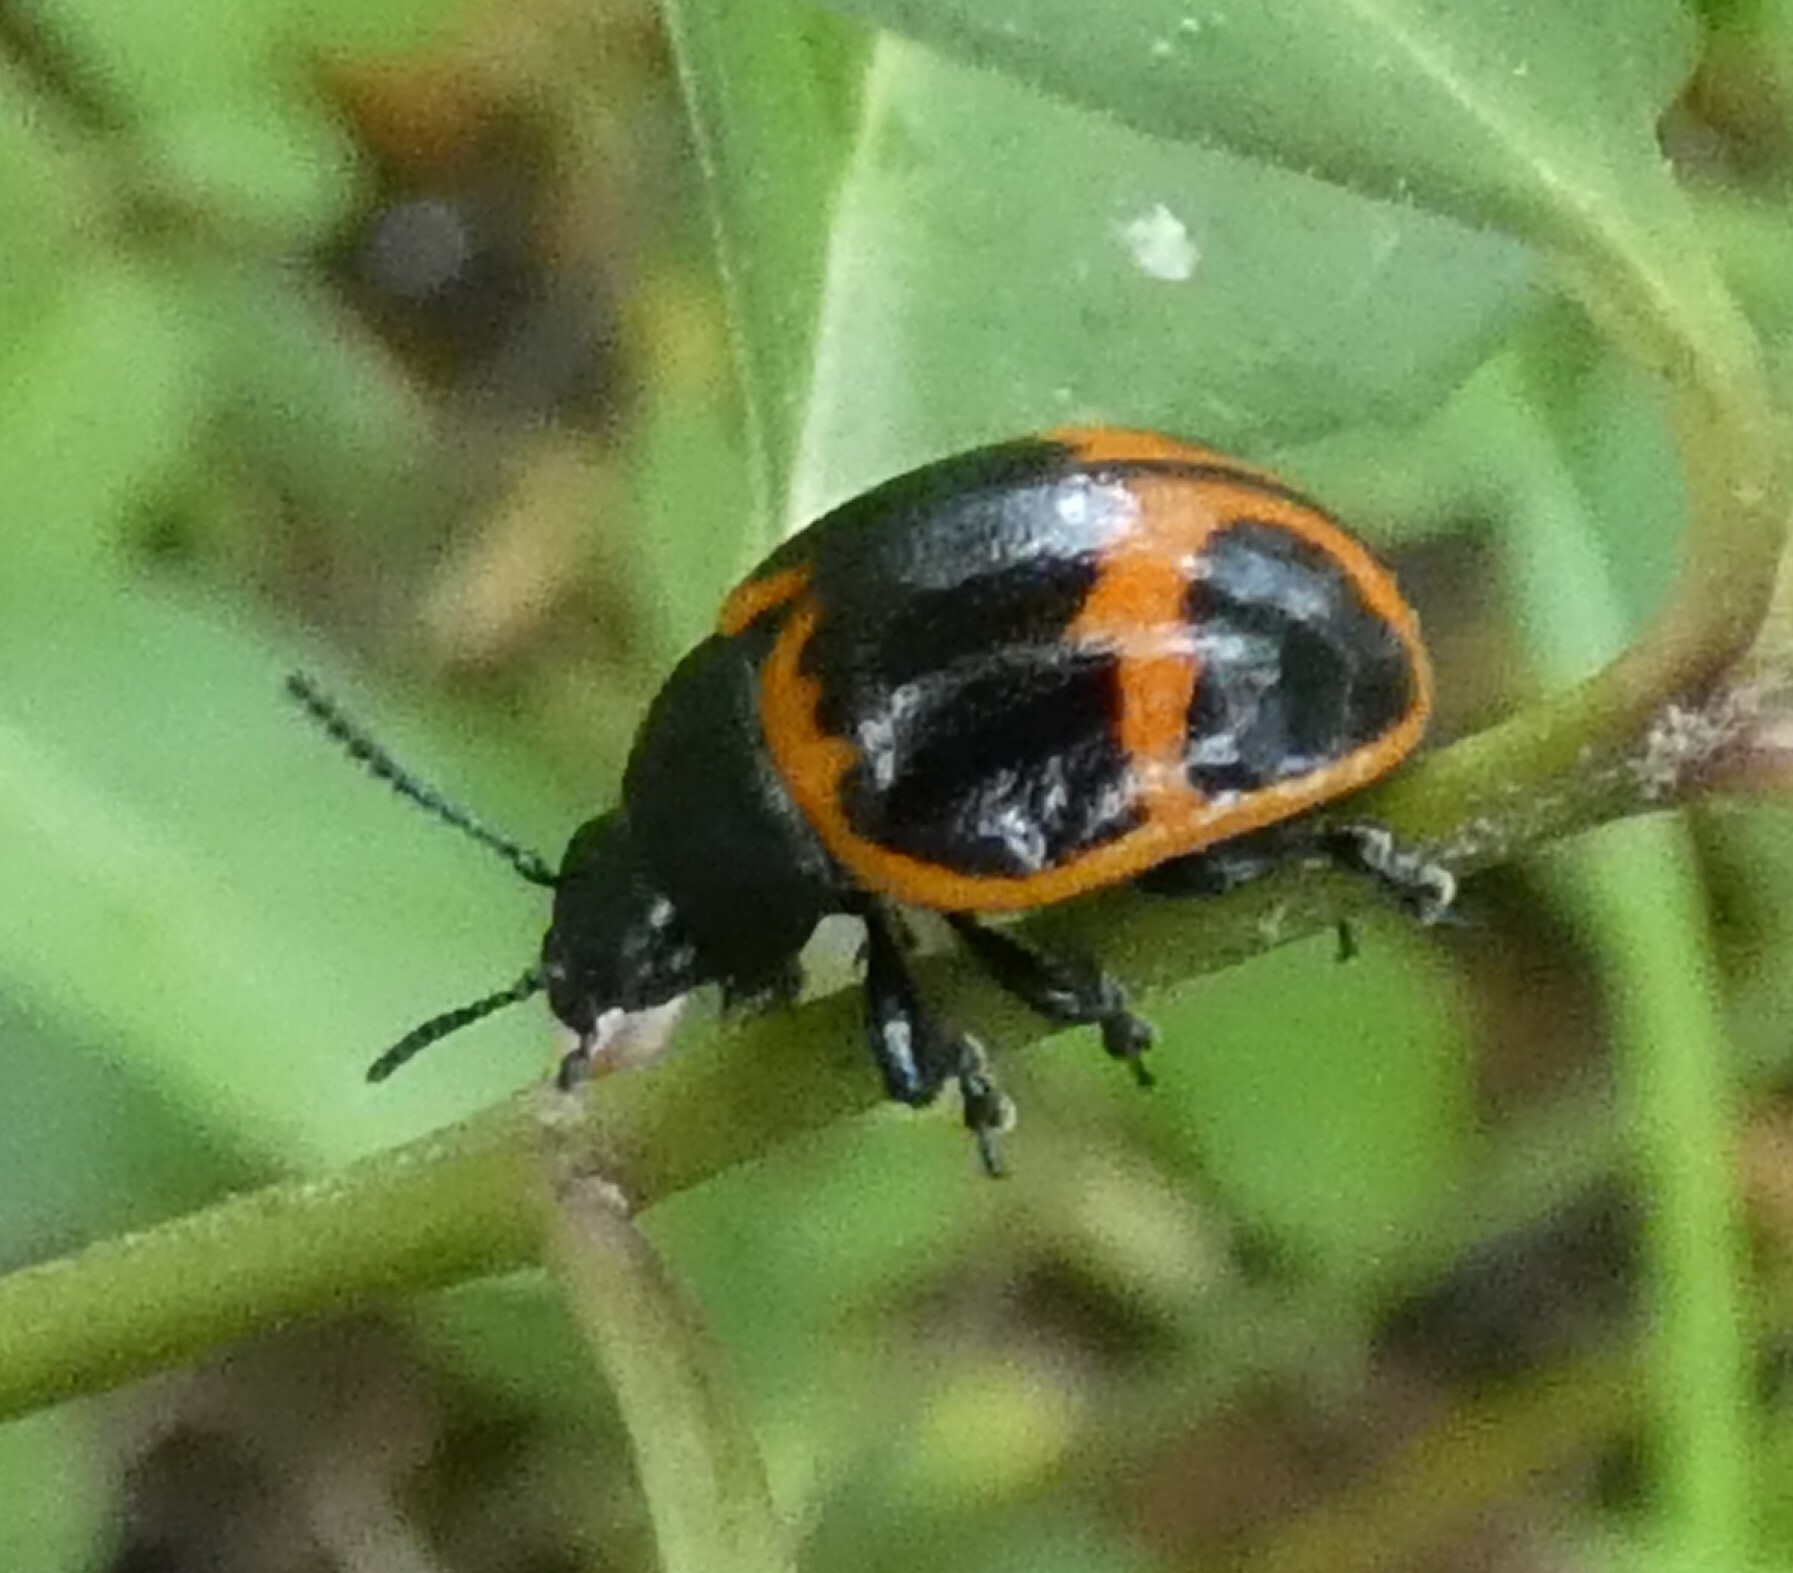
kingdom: Animalia
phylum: Arthropoda
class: Insecta
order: Coleoptera
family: Chrysomelidae
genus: Labidomera
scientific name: Labidomera clivicollis
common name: Swamp milkweed leaf beetle
